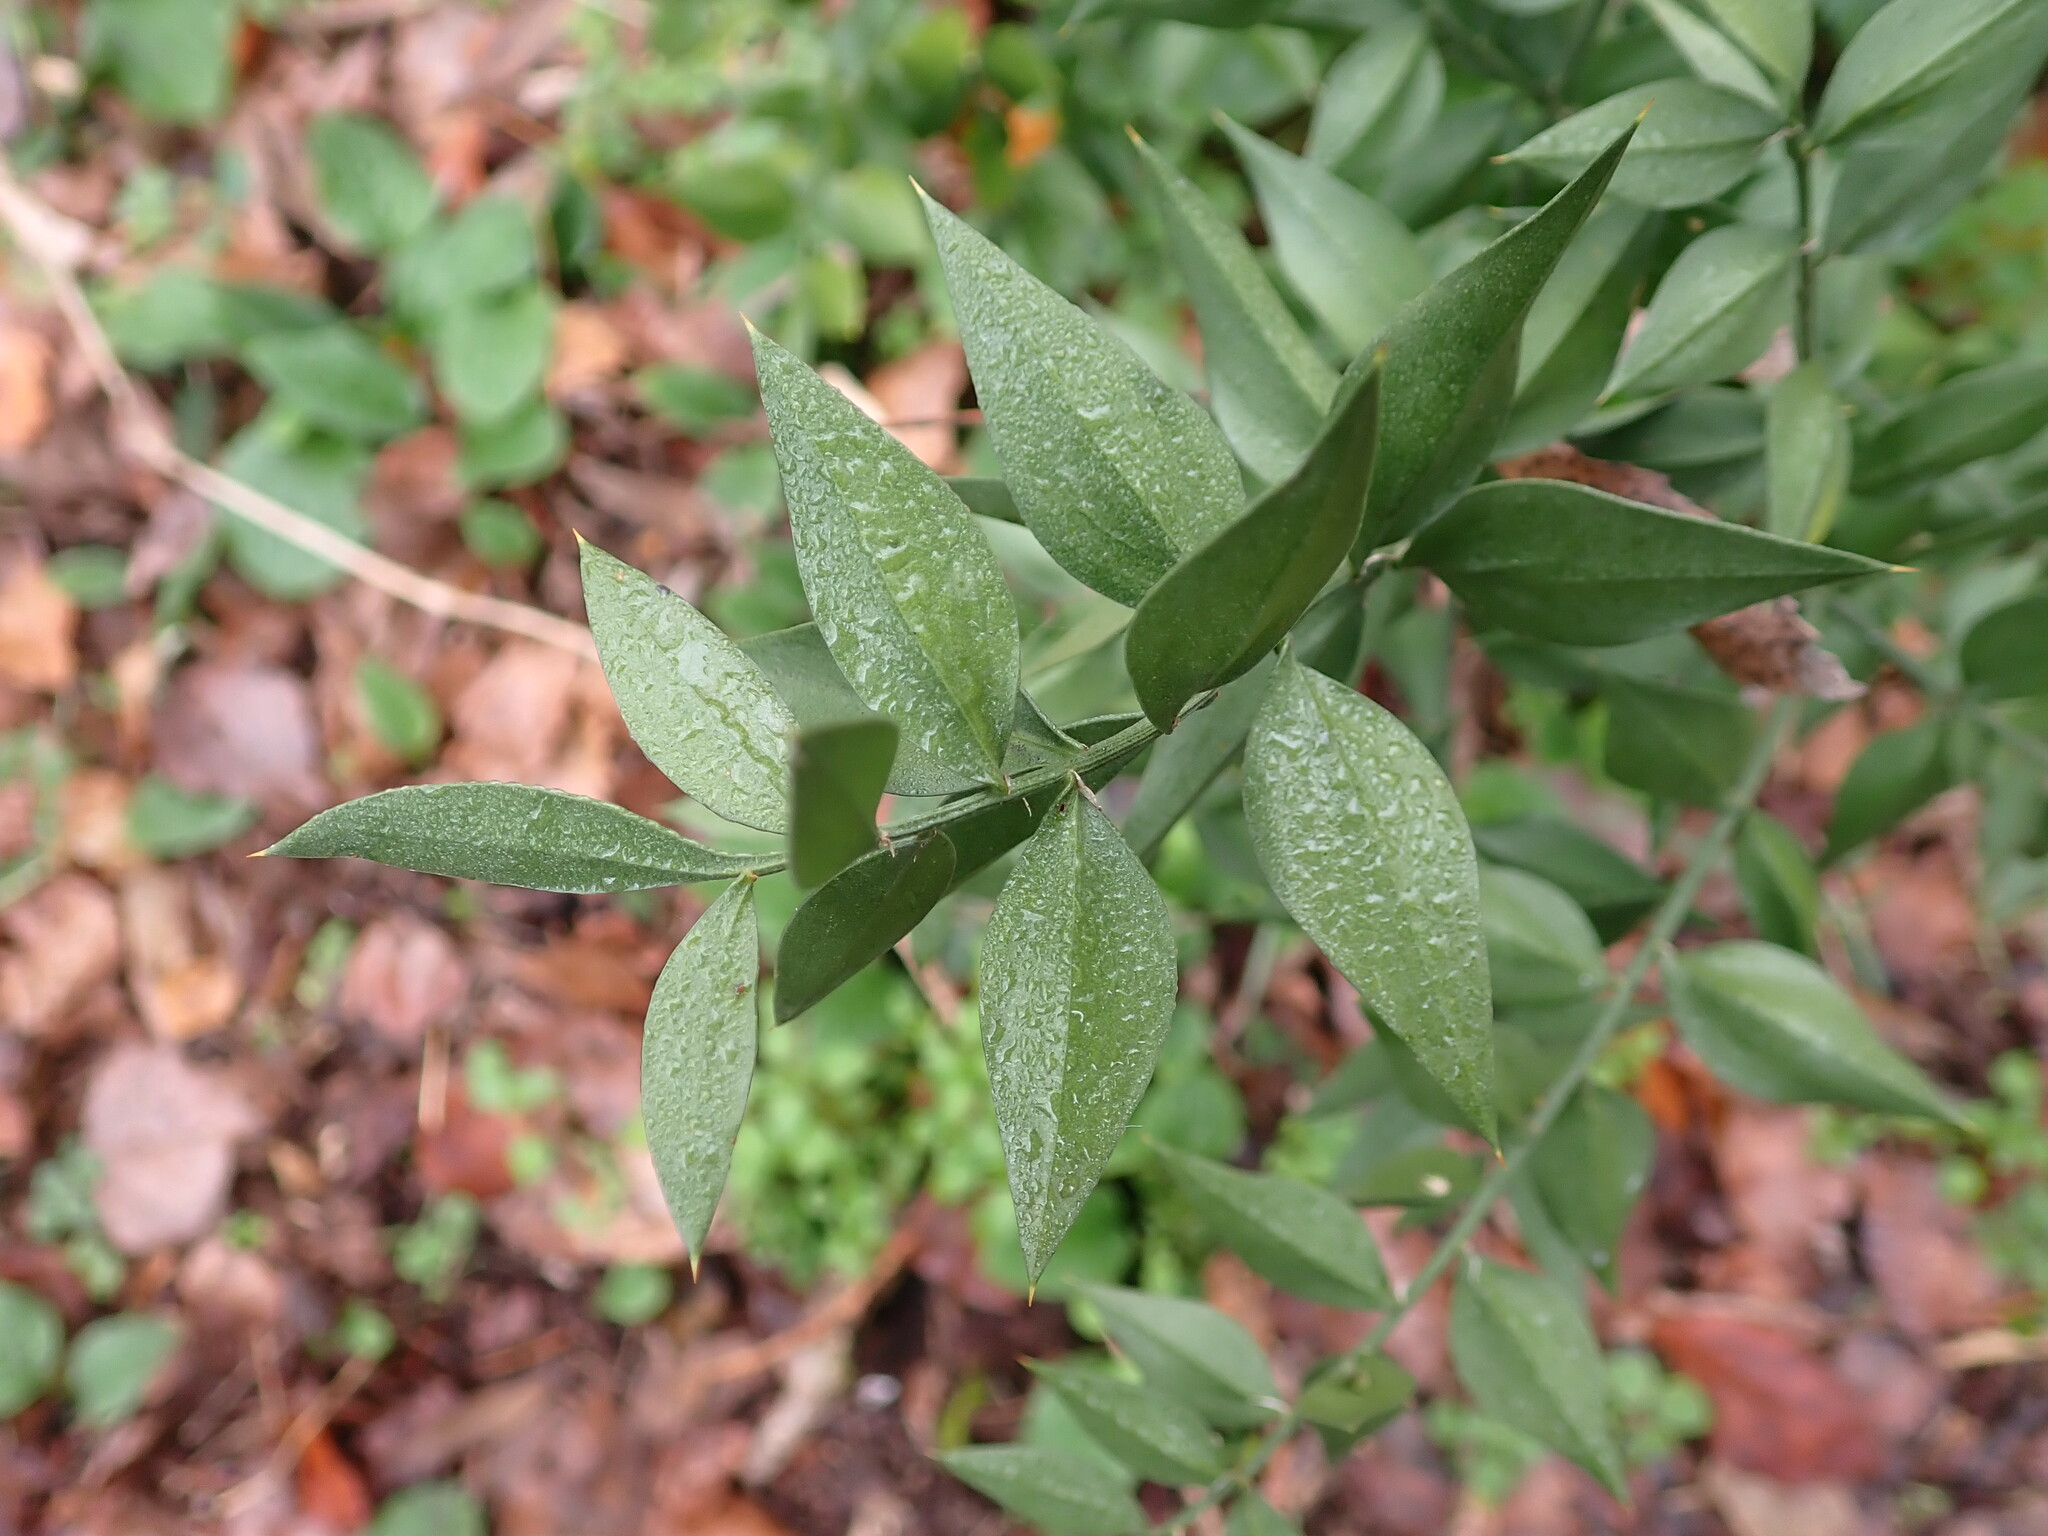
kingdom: Plantae
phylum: Tracheophyta
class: Liliopsida
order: Asparagales
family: Asparagaceae
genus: Ruscus
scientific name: Ruscus aculeatus
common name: Butcher's-broom
